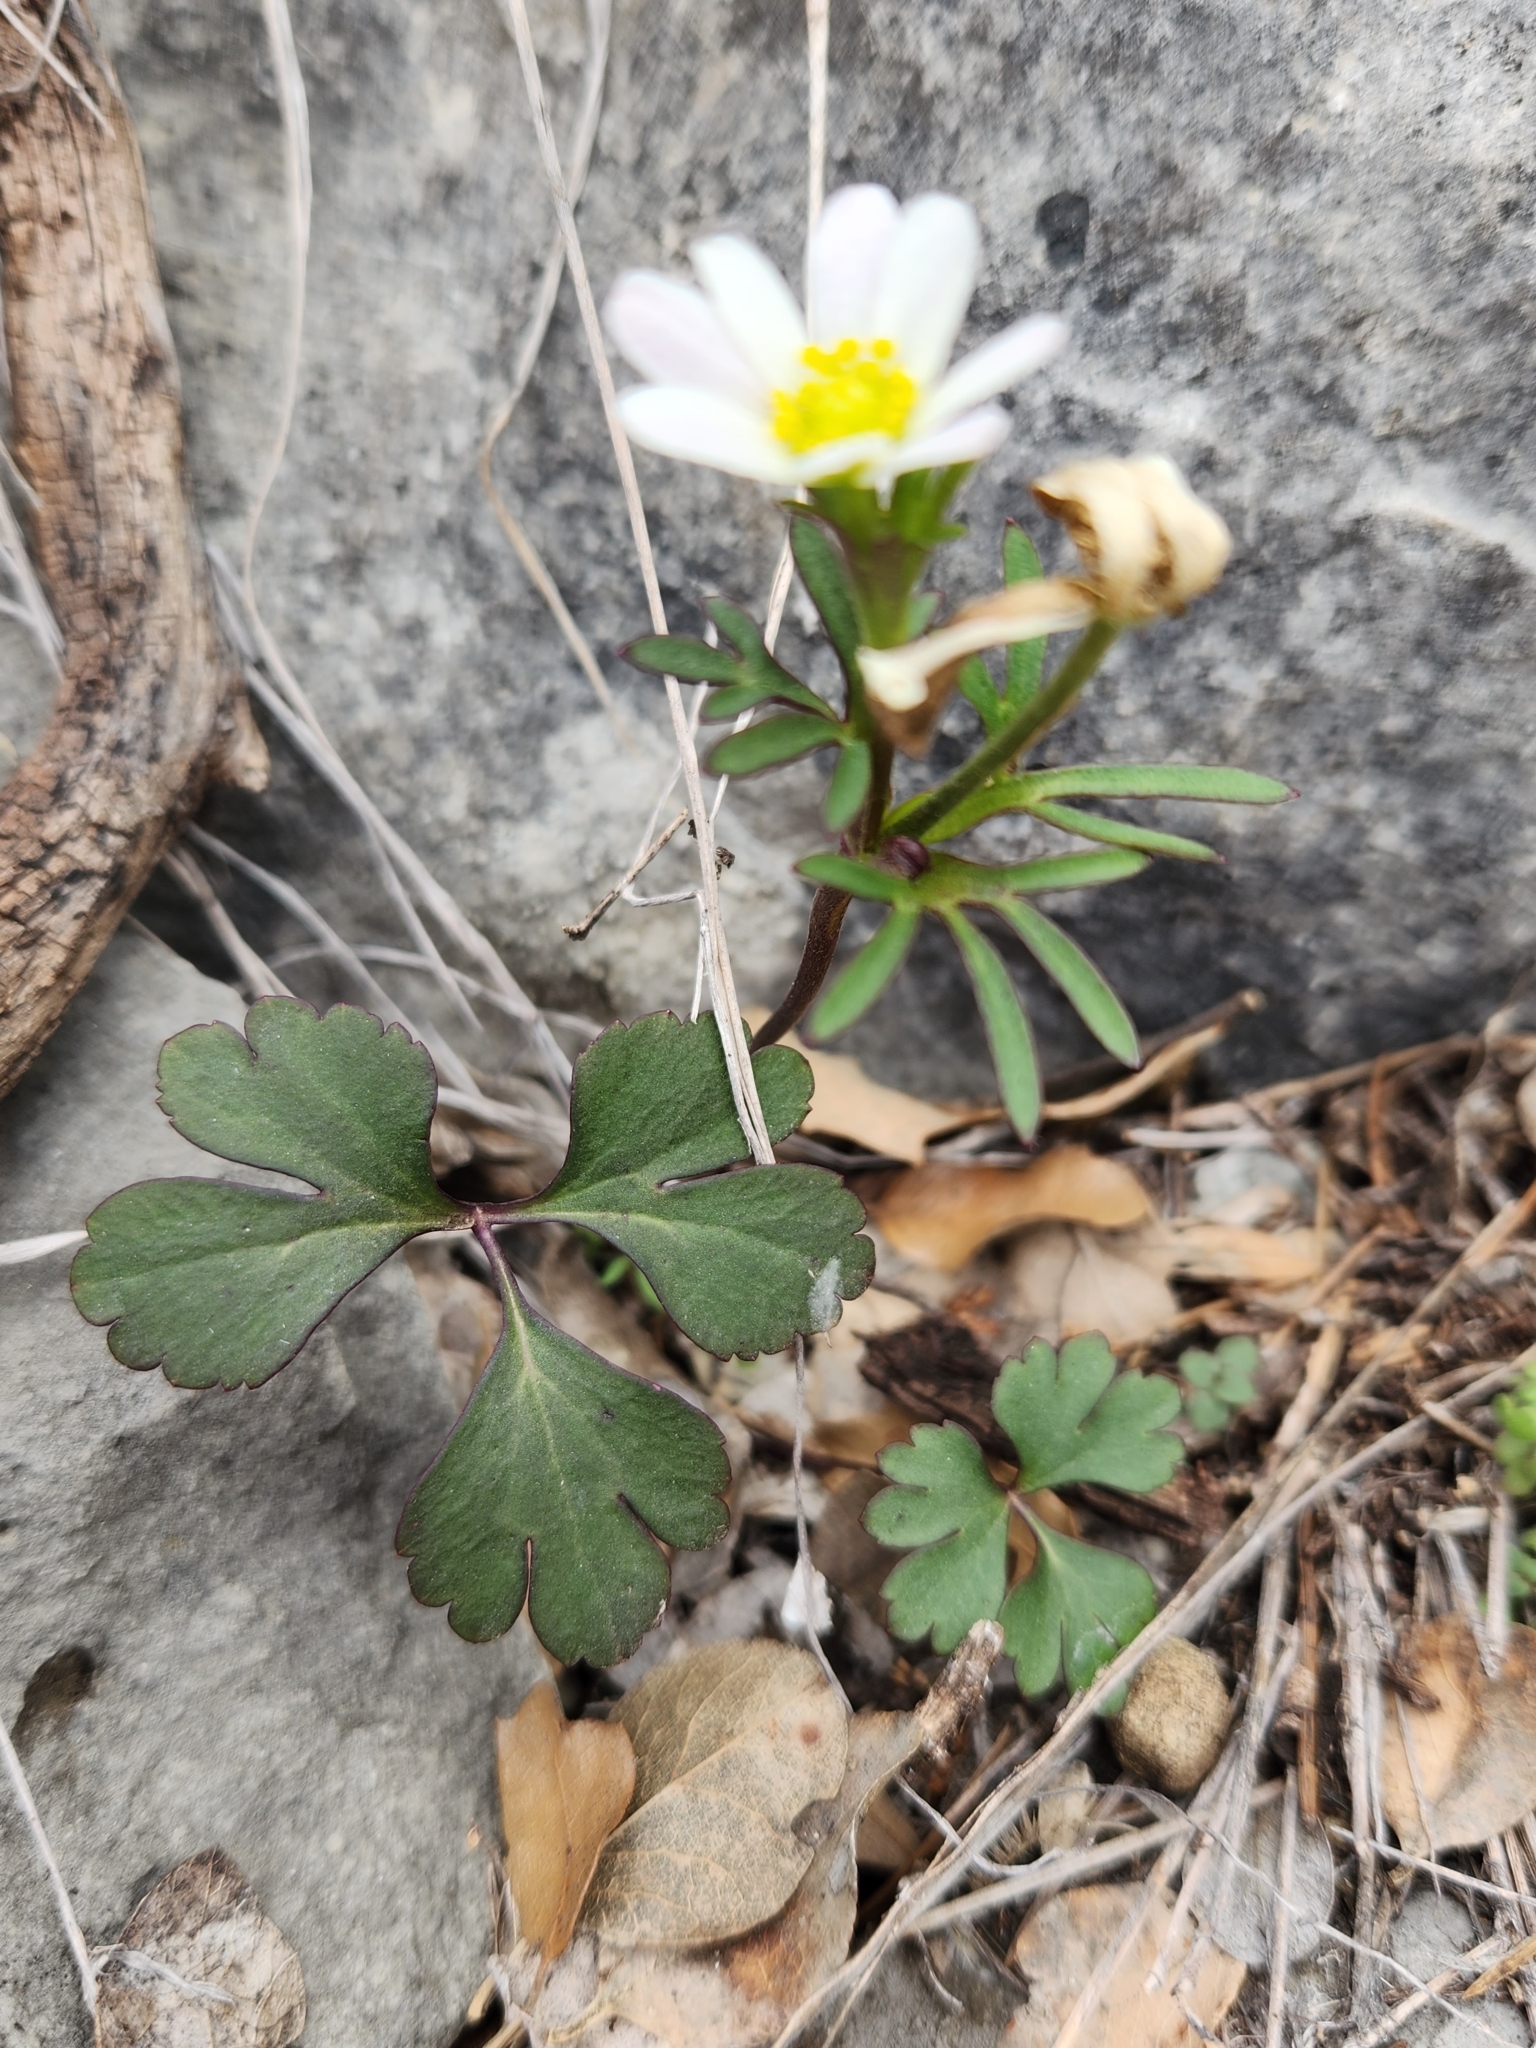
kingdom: Plantae
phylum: Tracheophyta
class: Magnoliopsida
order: Ranunculales
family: Ranunculaceae
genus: Anemone
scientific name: Anemone edwardsiana
